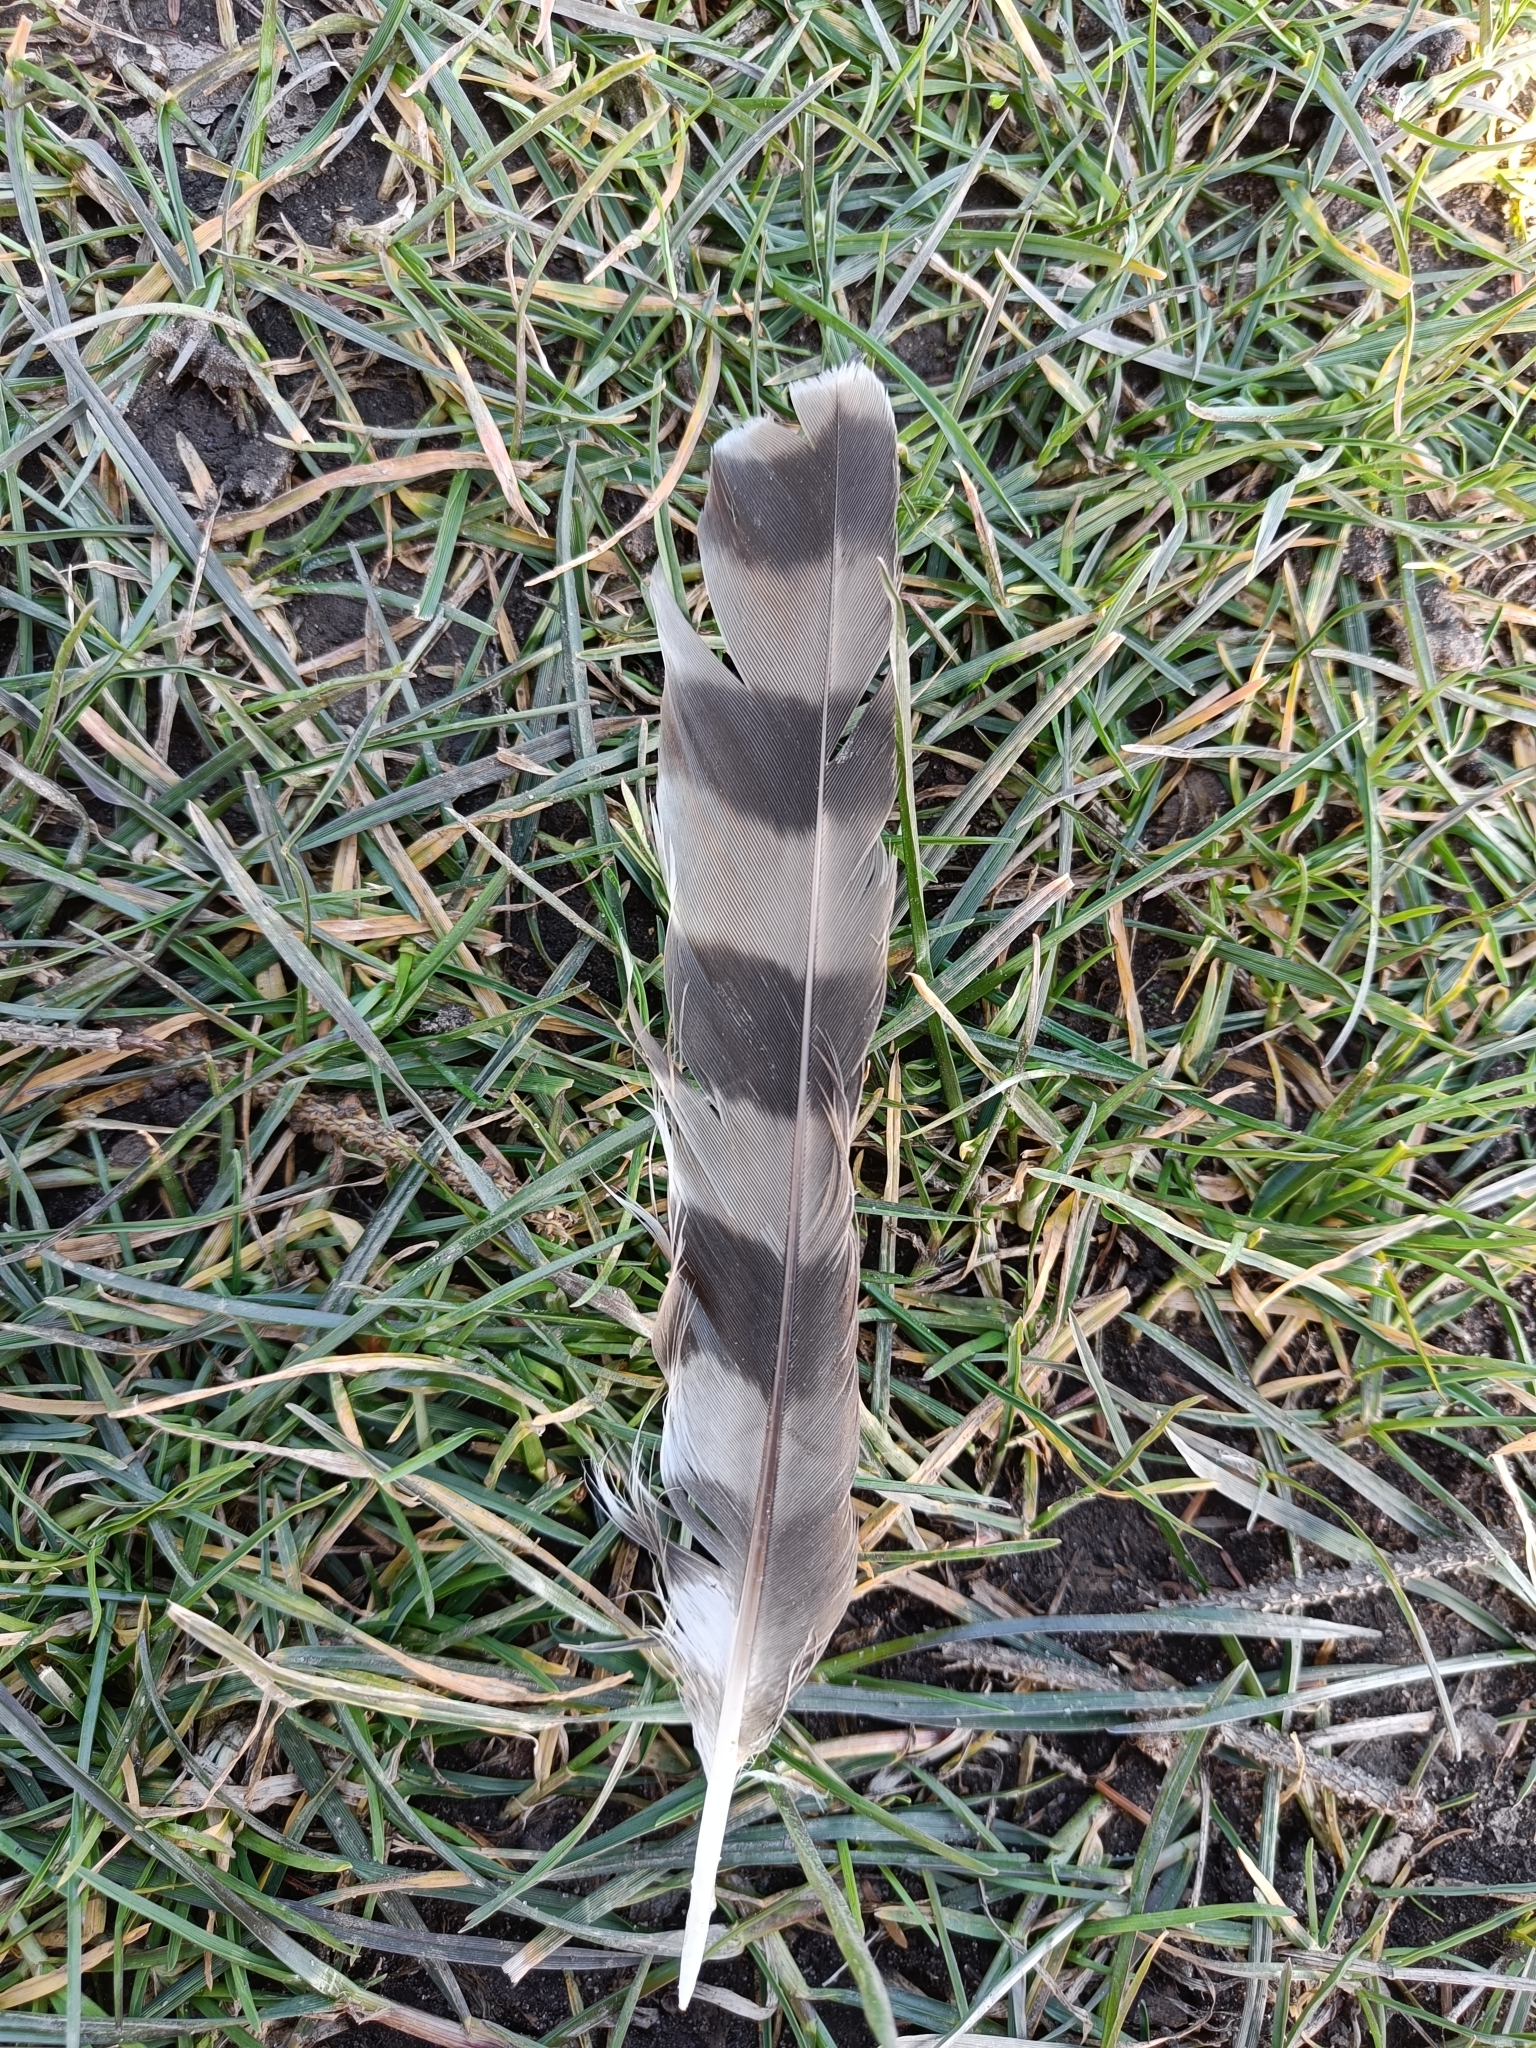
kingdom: Animalia
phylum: Chordata
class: Aves
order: Accipitriformes
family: Accipitridae
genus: Accipiter
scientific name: Accipiter nisus
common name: Eurasian sparrowhawk
